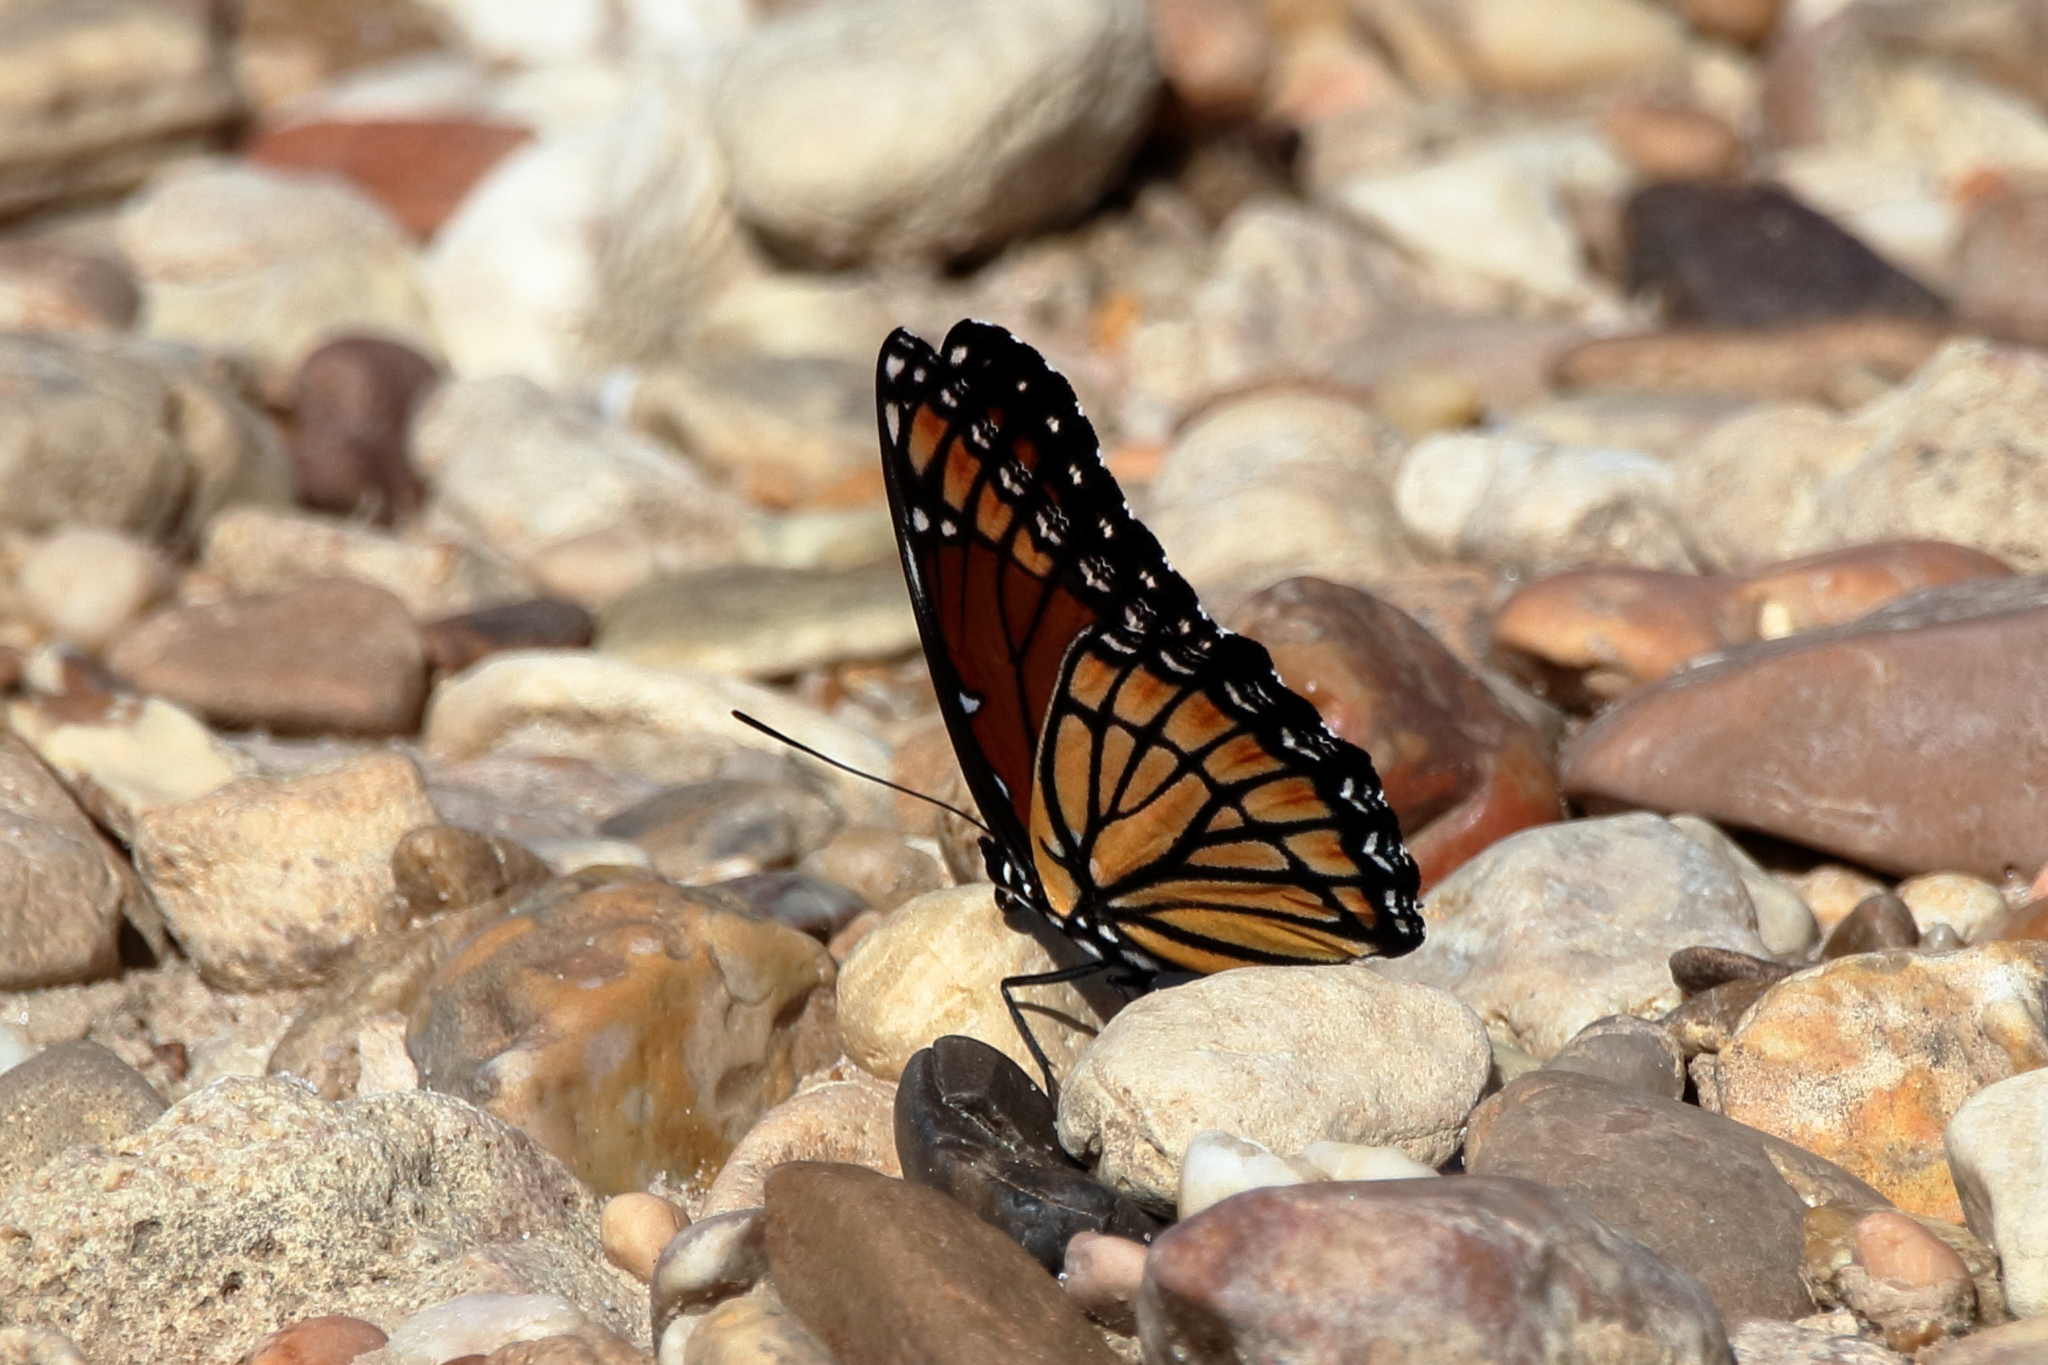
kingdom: Animalia
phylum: Arthropoda
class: Insecta
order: Lepidoptera
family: Nymphalidae
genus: Limenitis
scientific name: Limenitis archippus
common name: Viceroy
